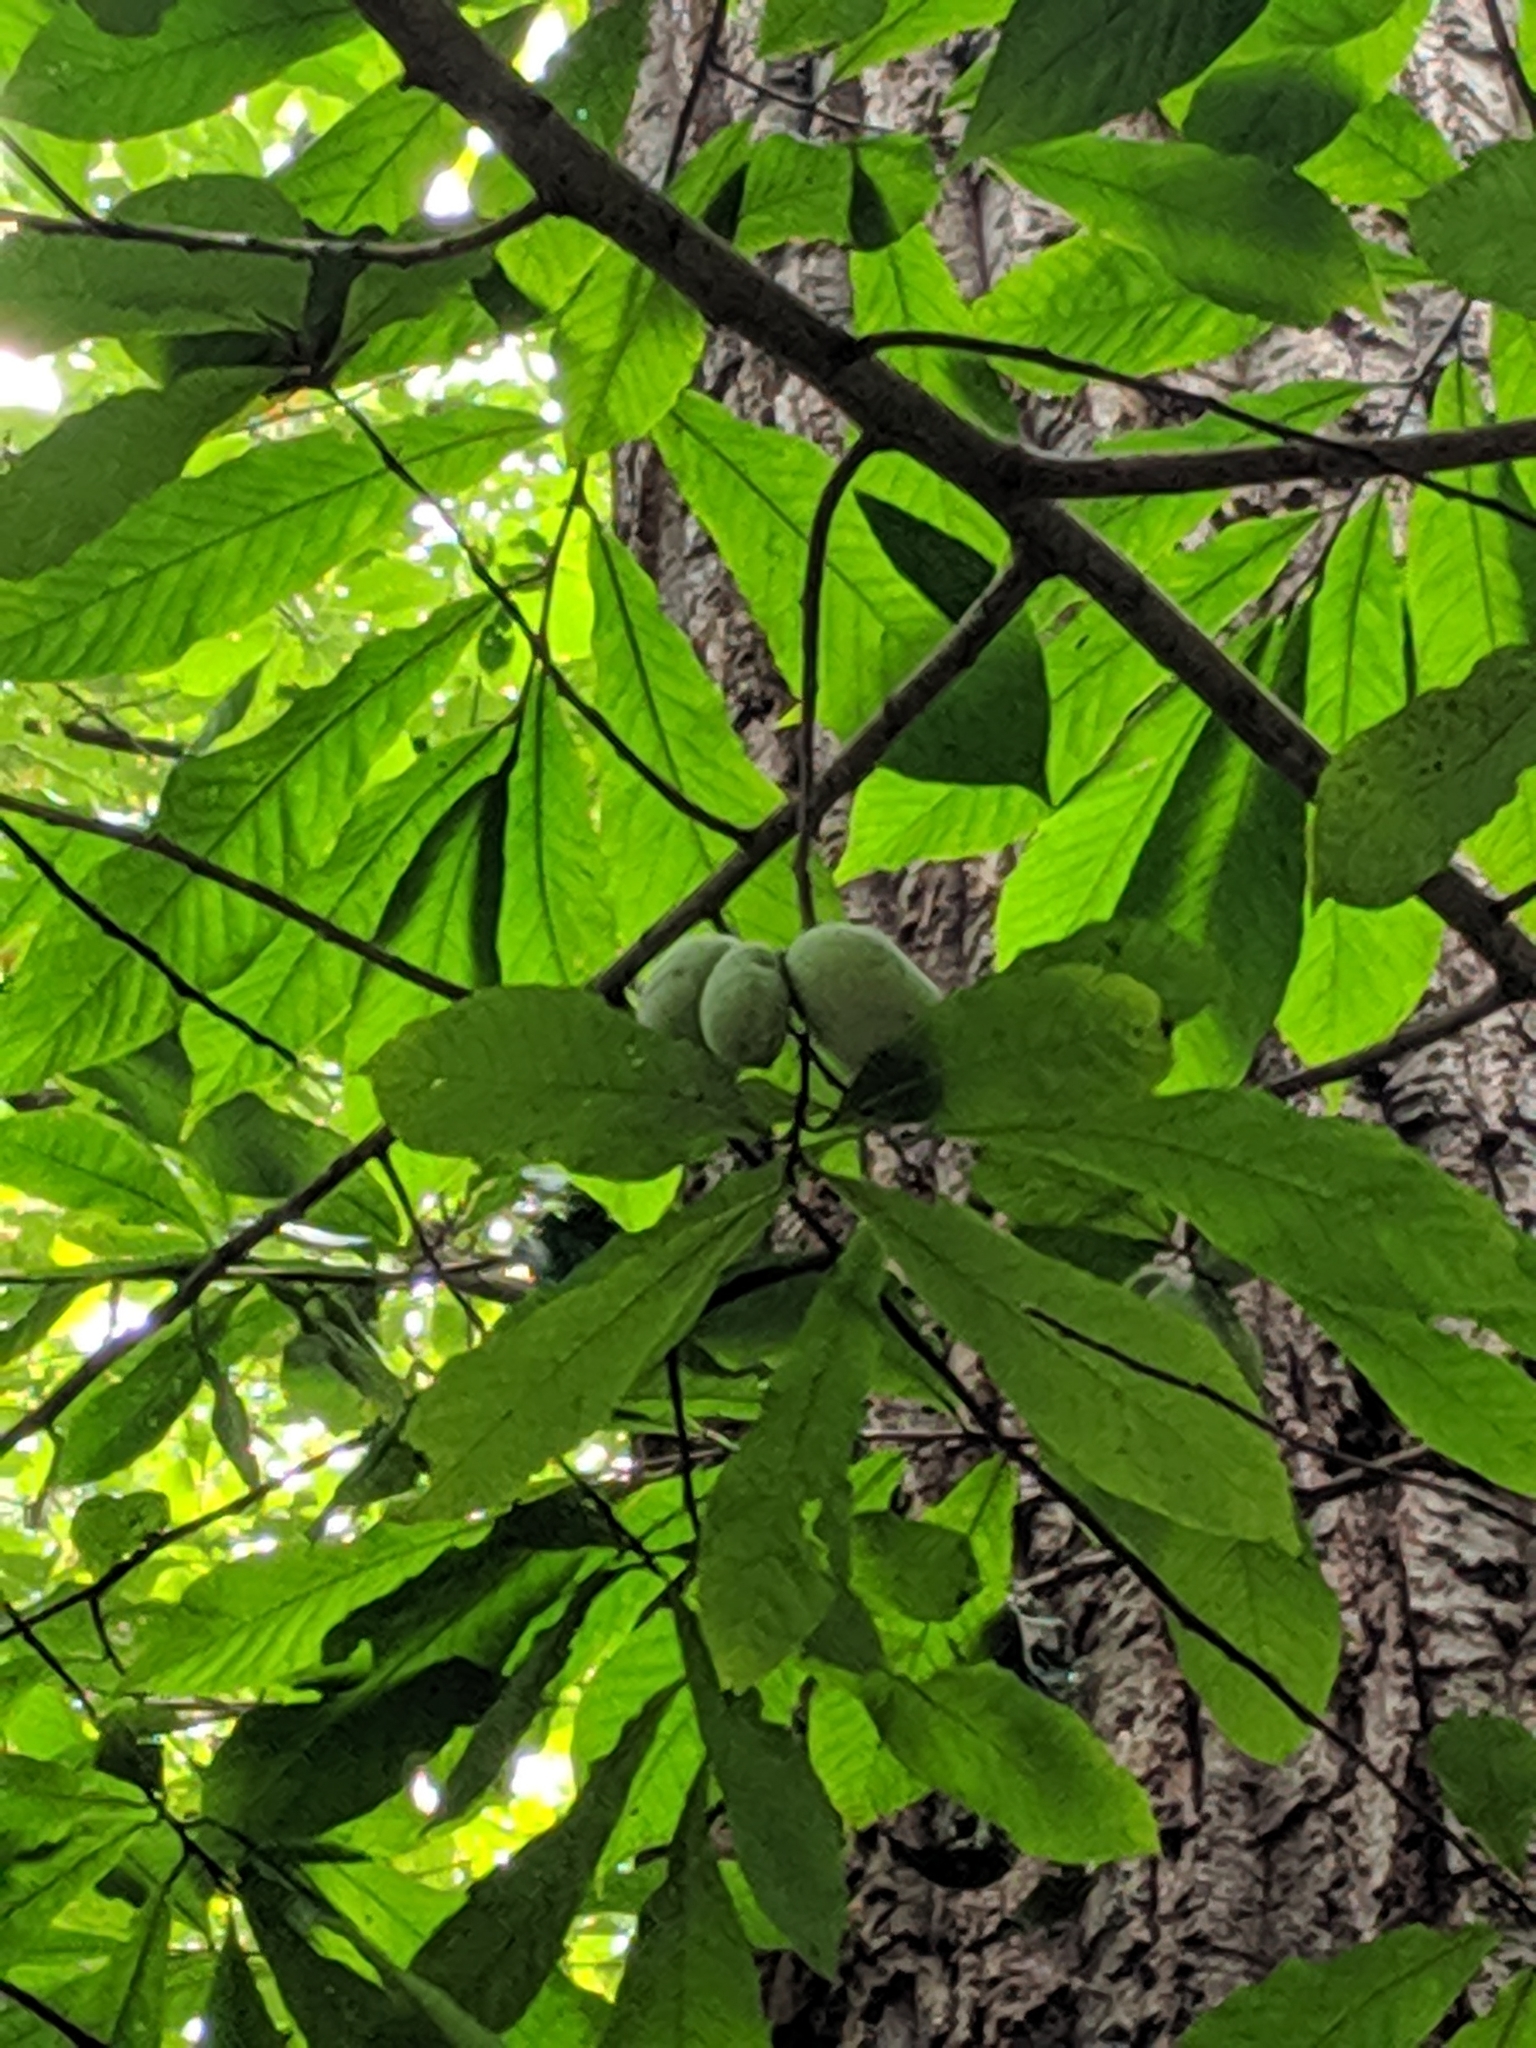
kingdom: Plantae
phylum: Tracheophyta
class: Magnoliopsida
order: Magnoliales
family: Annonaceae
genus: Asimina
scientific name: Asimina triloba
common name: Dog-banana
